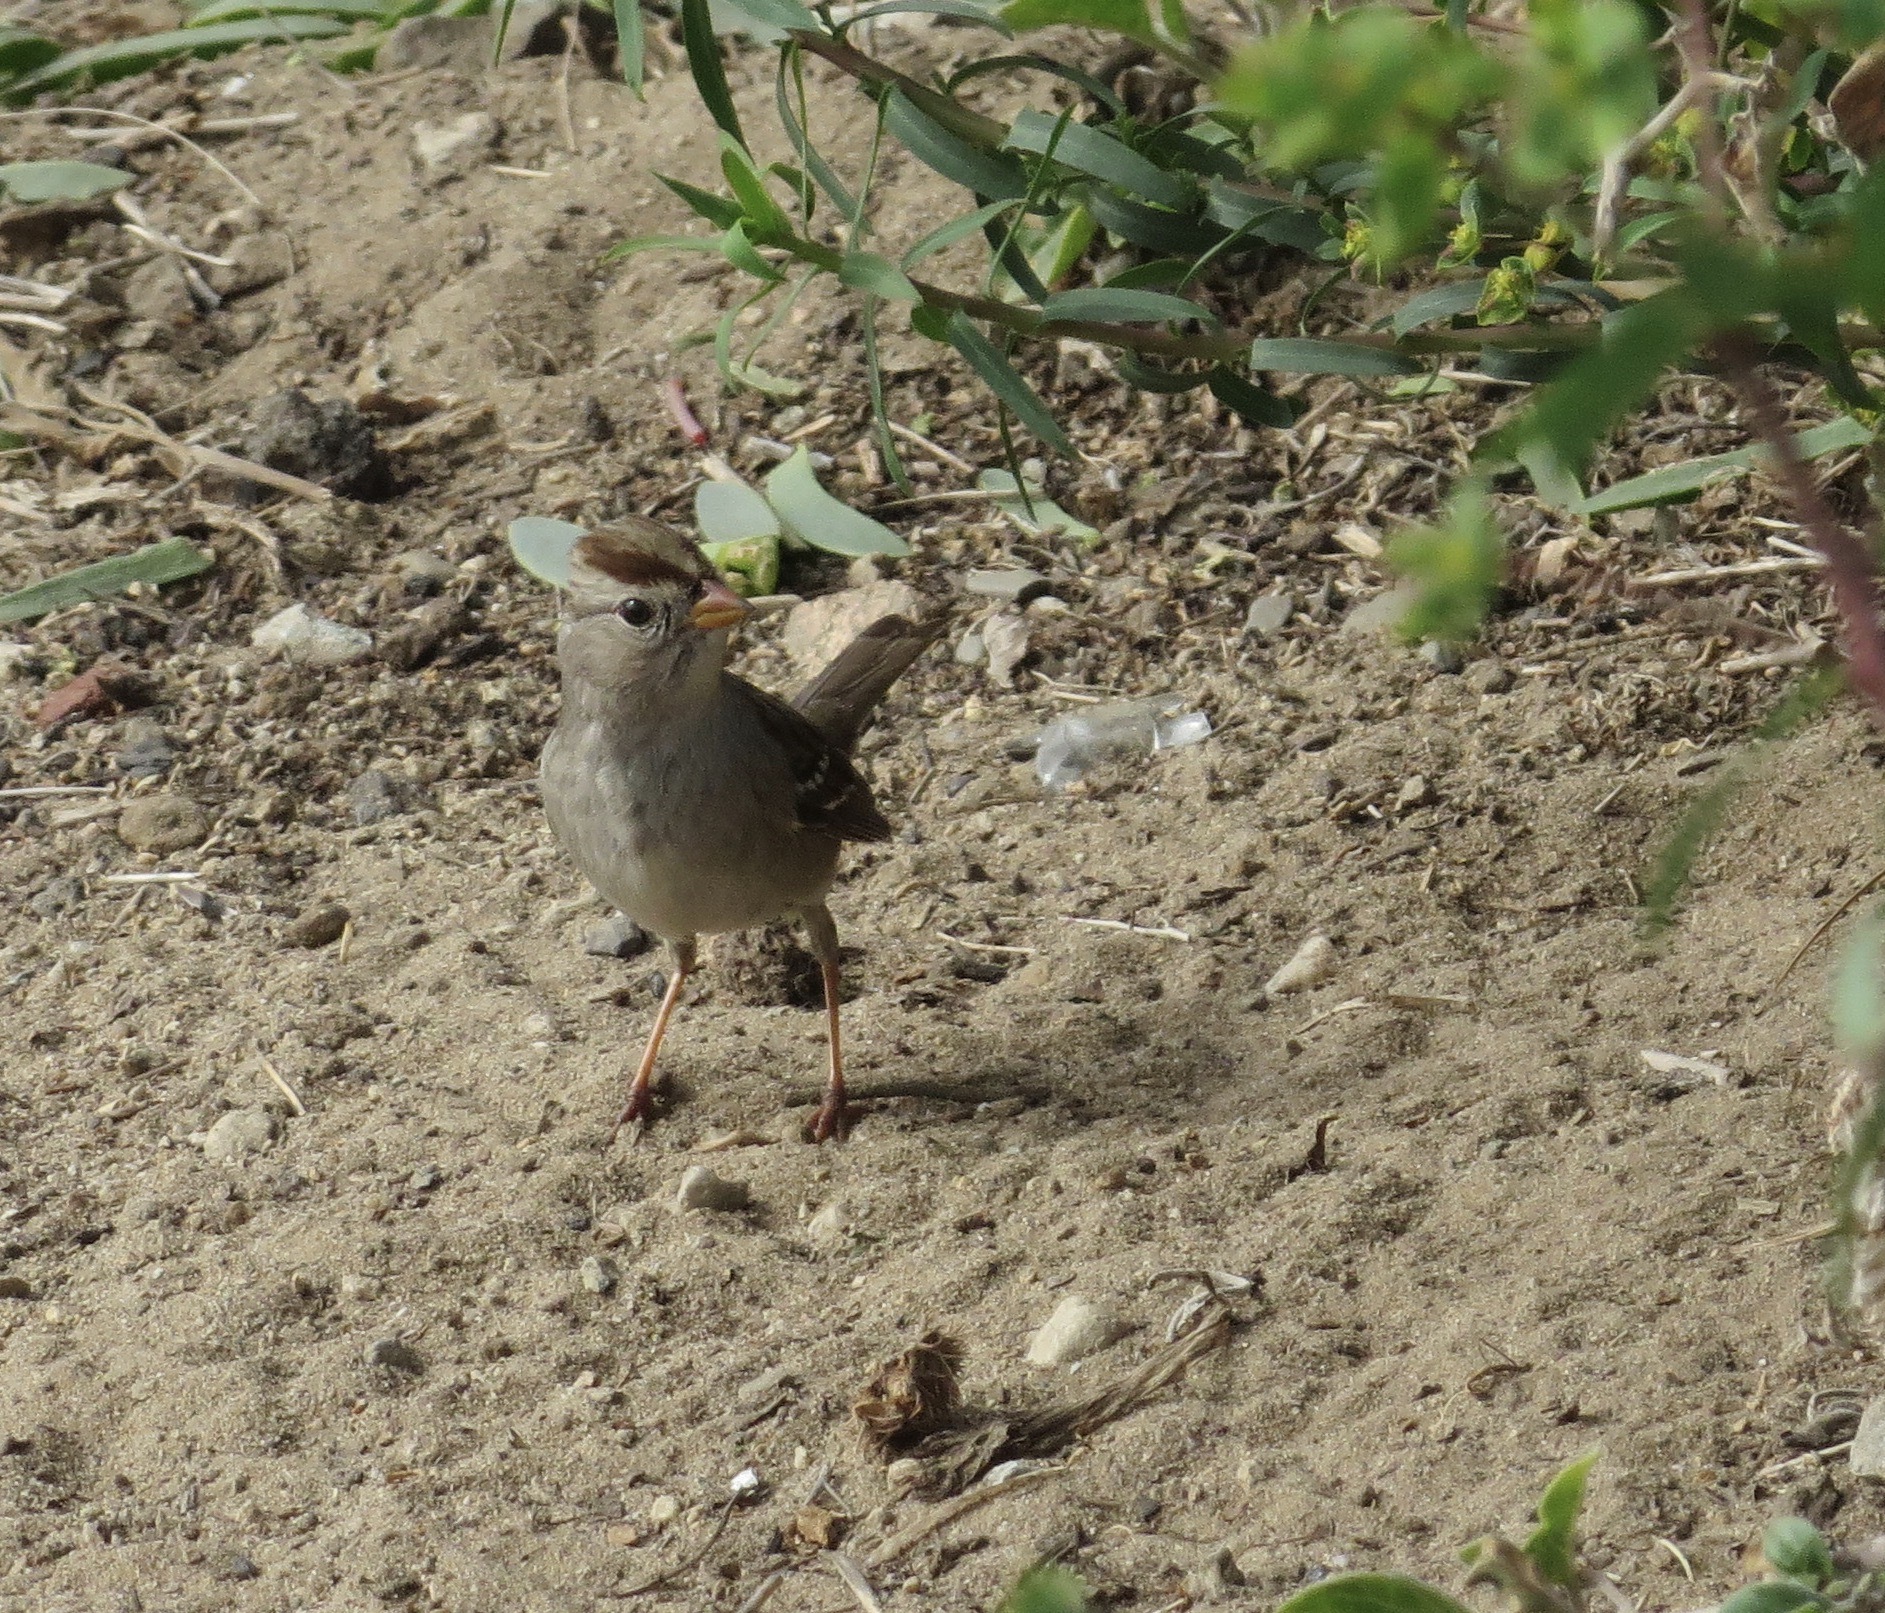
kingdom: Animalia
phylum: Chordata
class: Aves
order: Passeriformes
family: Passerellidae
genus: Zonotrichia
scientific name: Zonotrichia leucophrys
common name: White-crowned sparrow
